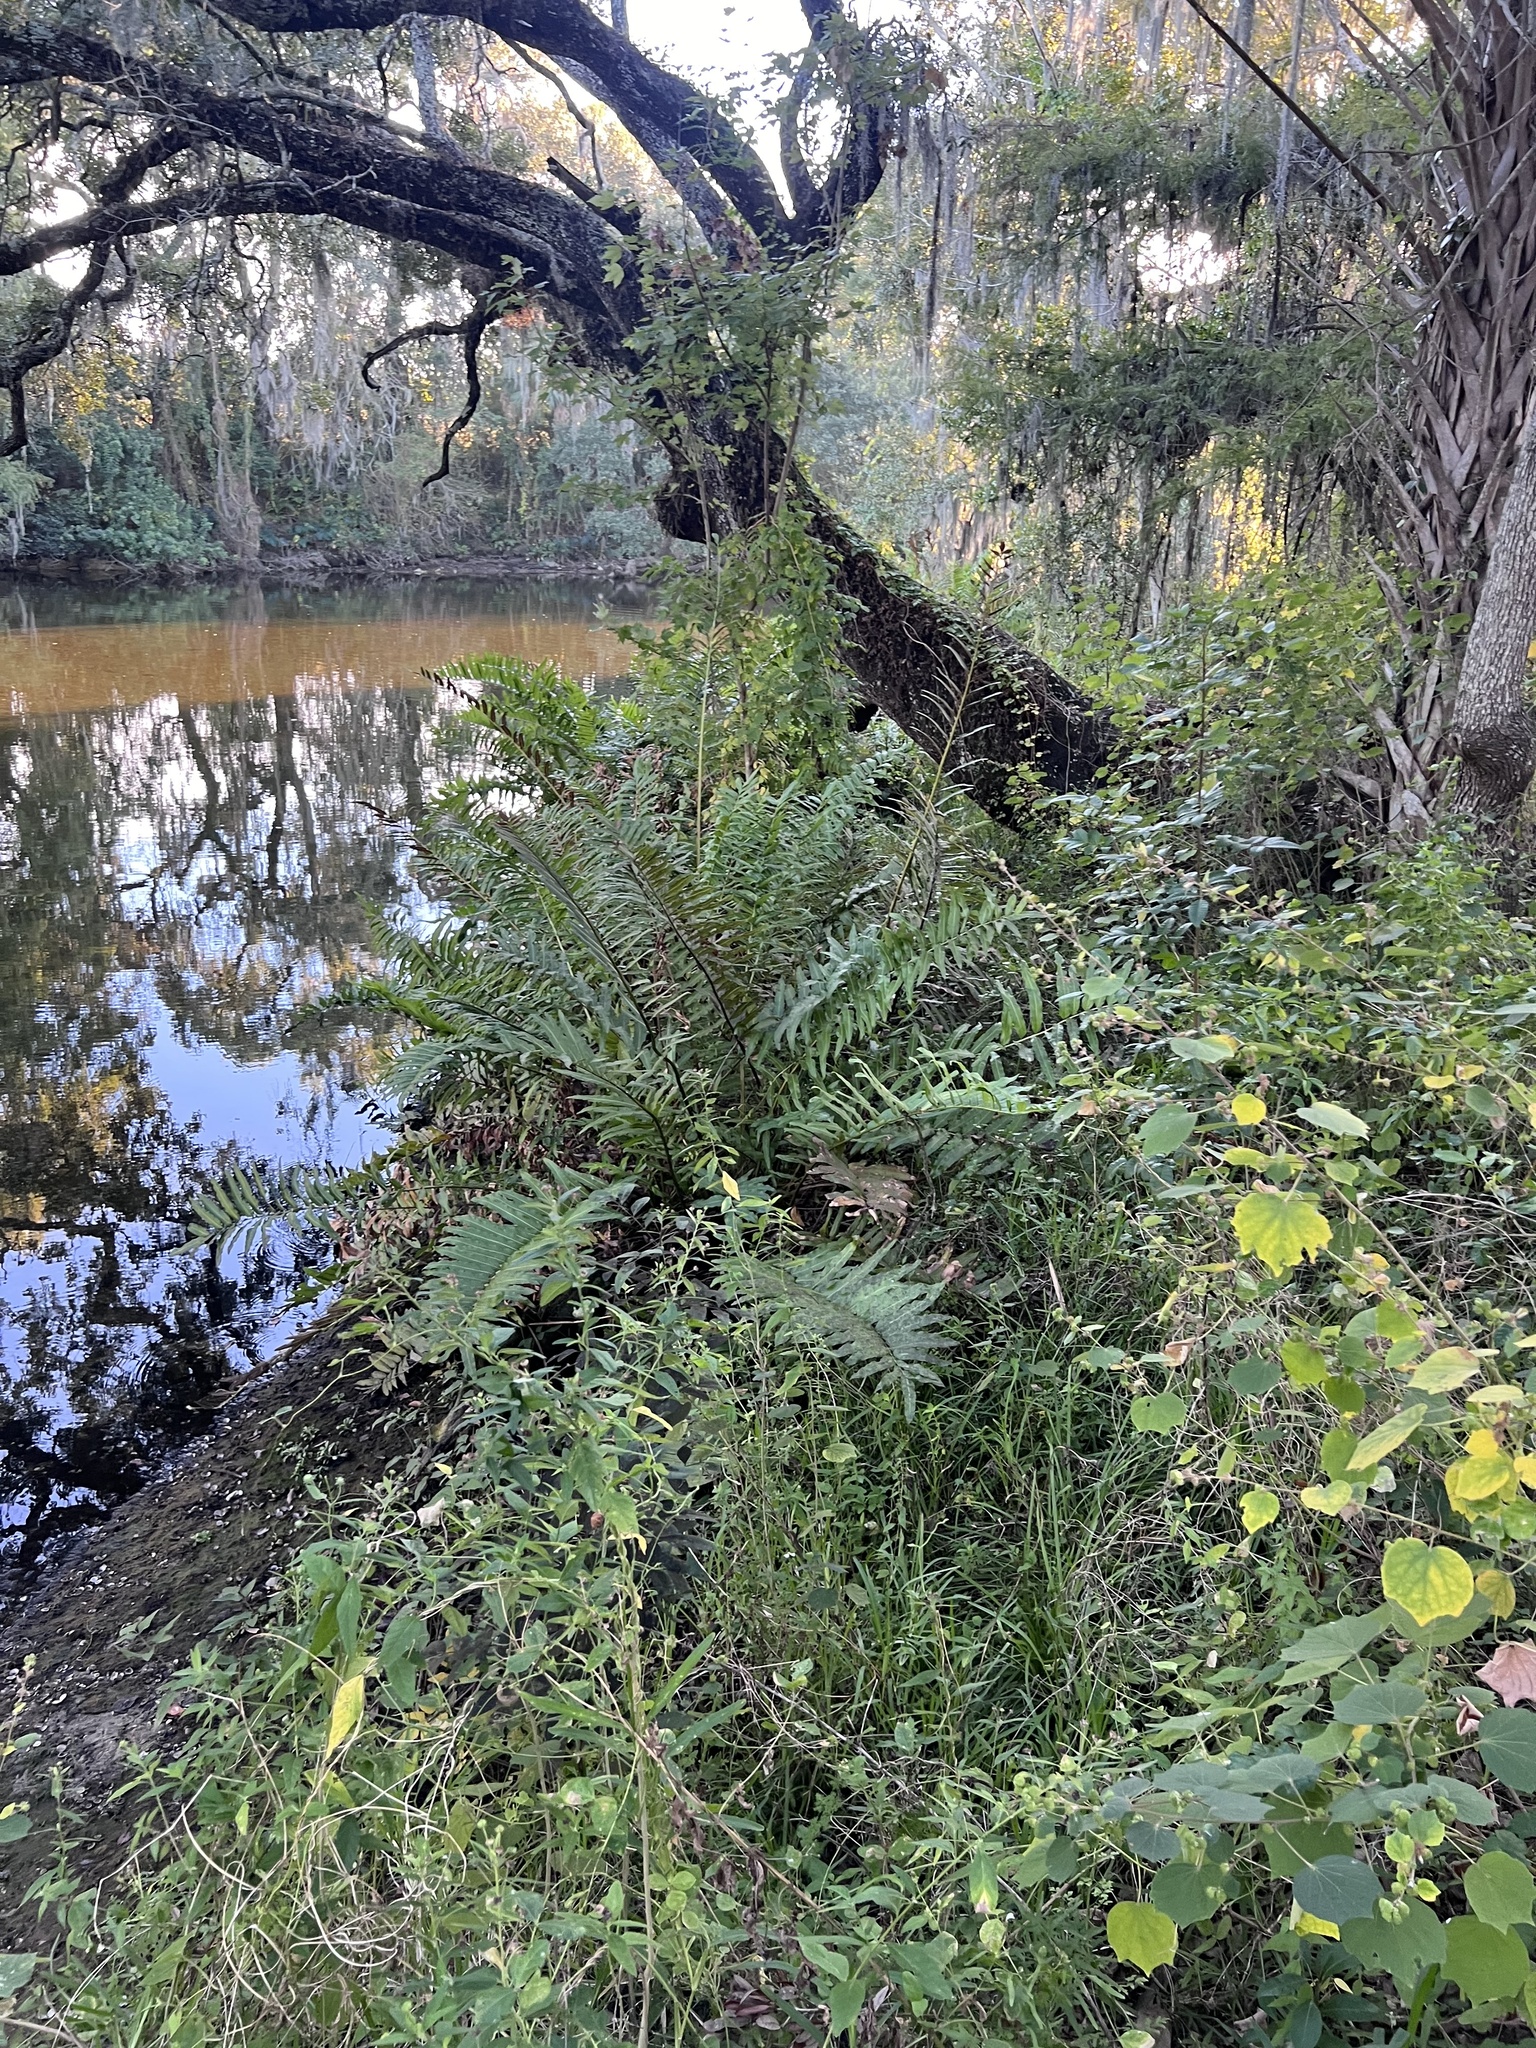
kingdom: Plantae
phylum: Tracheophyta
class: Polypodiopsida
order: Polypodiales
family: Pteridaceae
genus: Acrostichum
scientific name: Acrostichum danaeifolium
